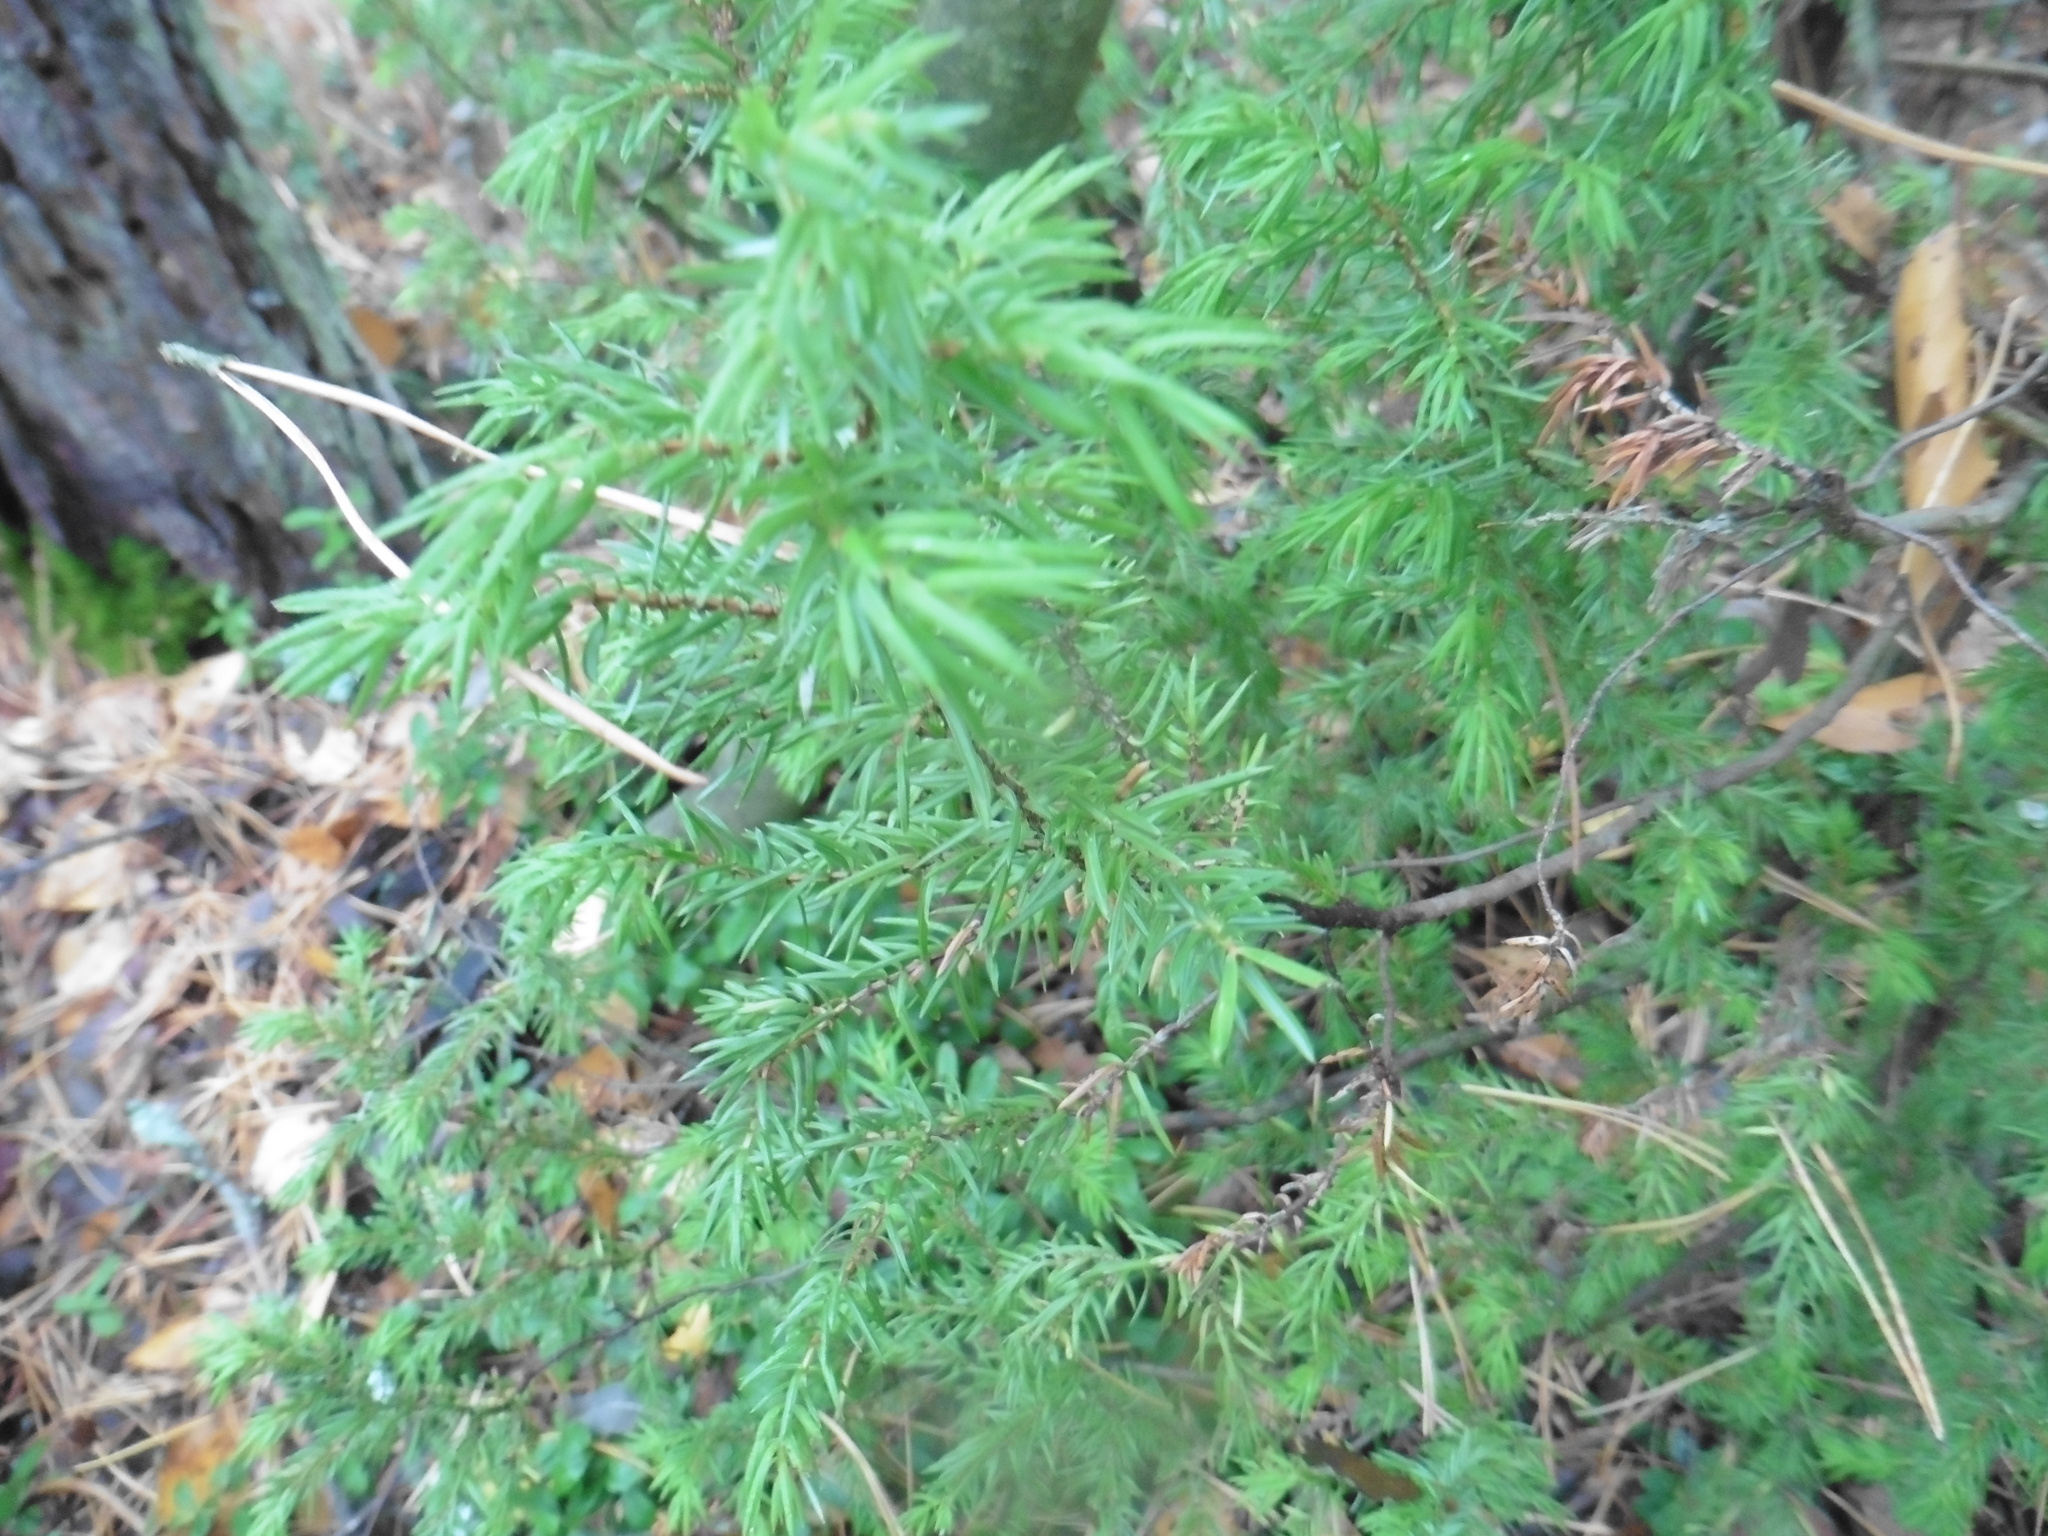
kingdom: Plantae
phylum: Tracheophyta
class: Pinopsida
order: Pinales
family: Cupressaceae
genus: Juniperus
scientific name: Juniperus communis
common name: Common juniper
